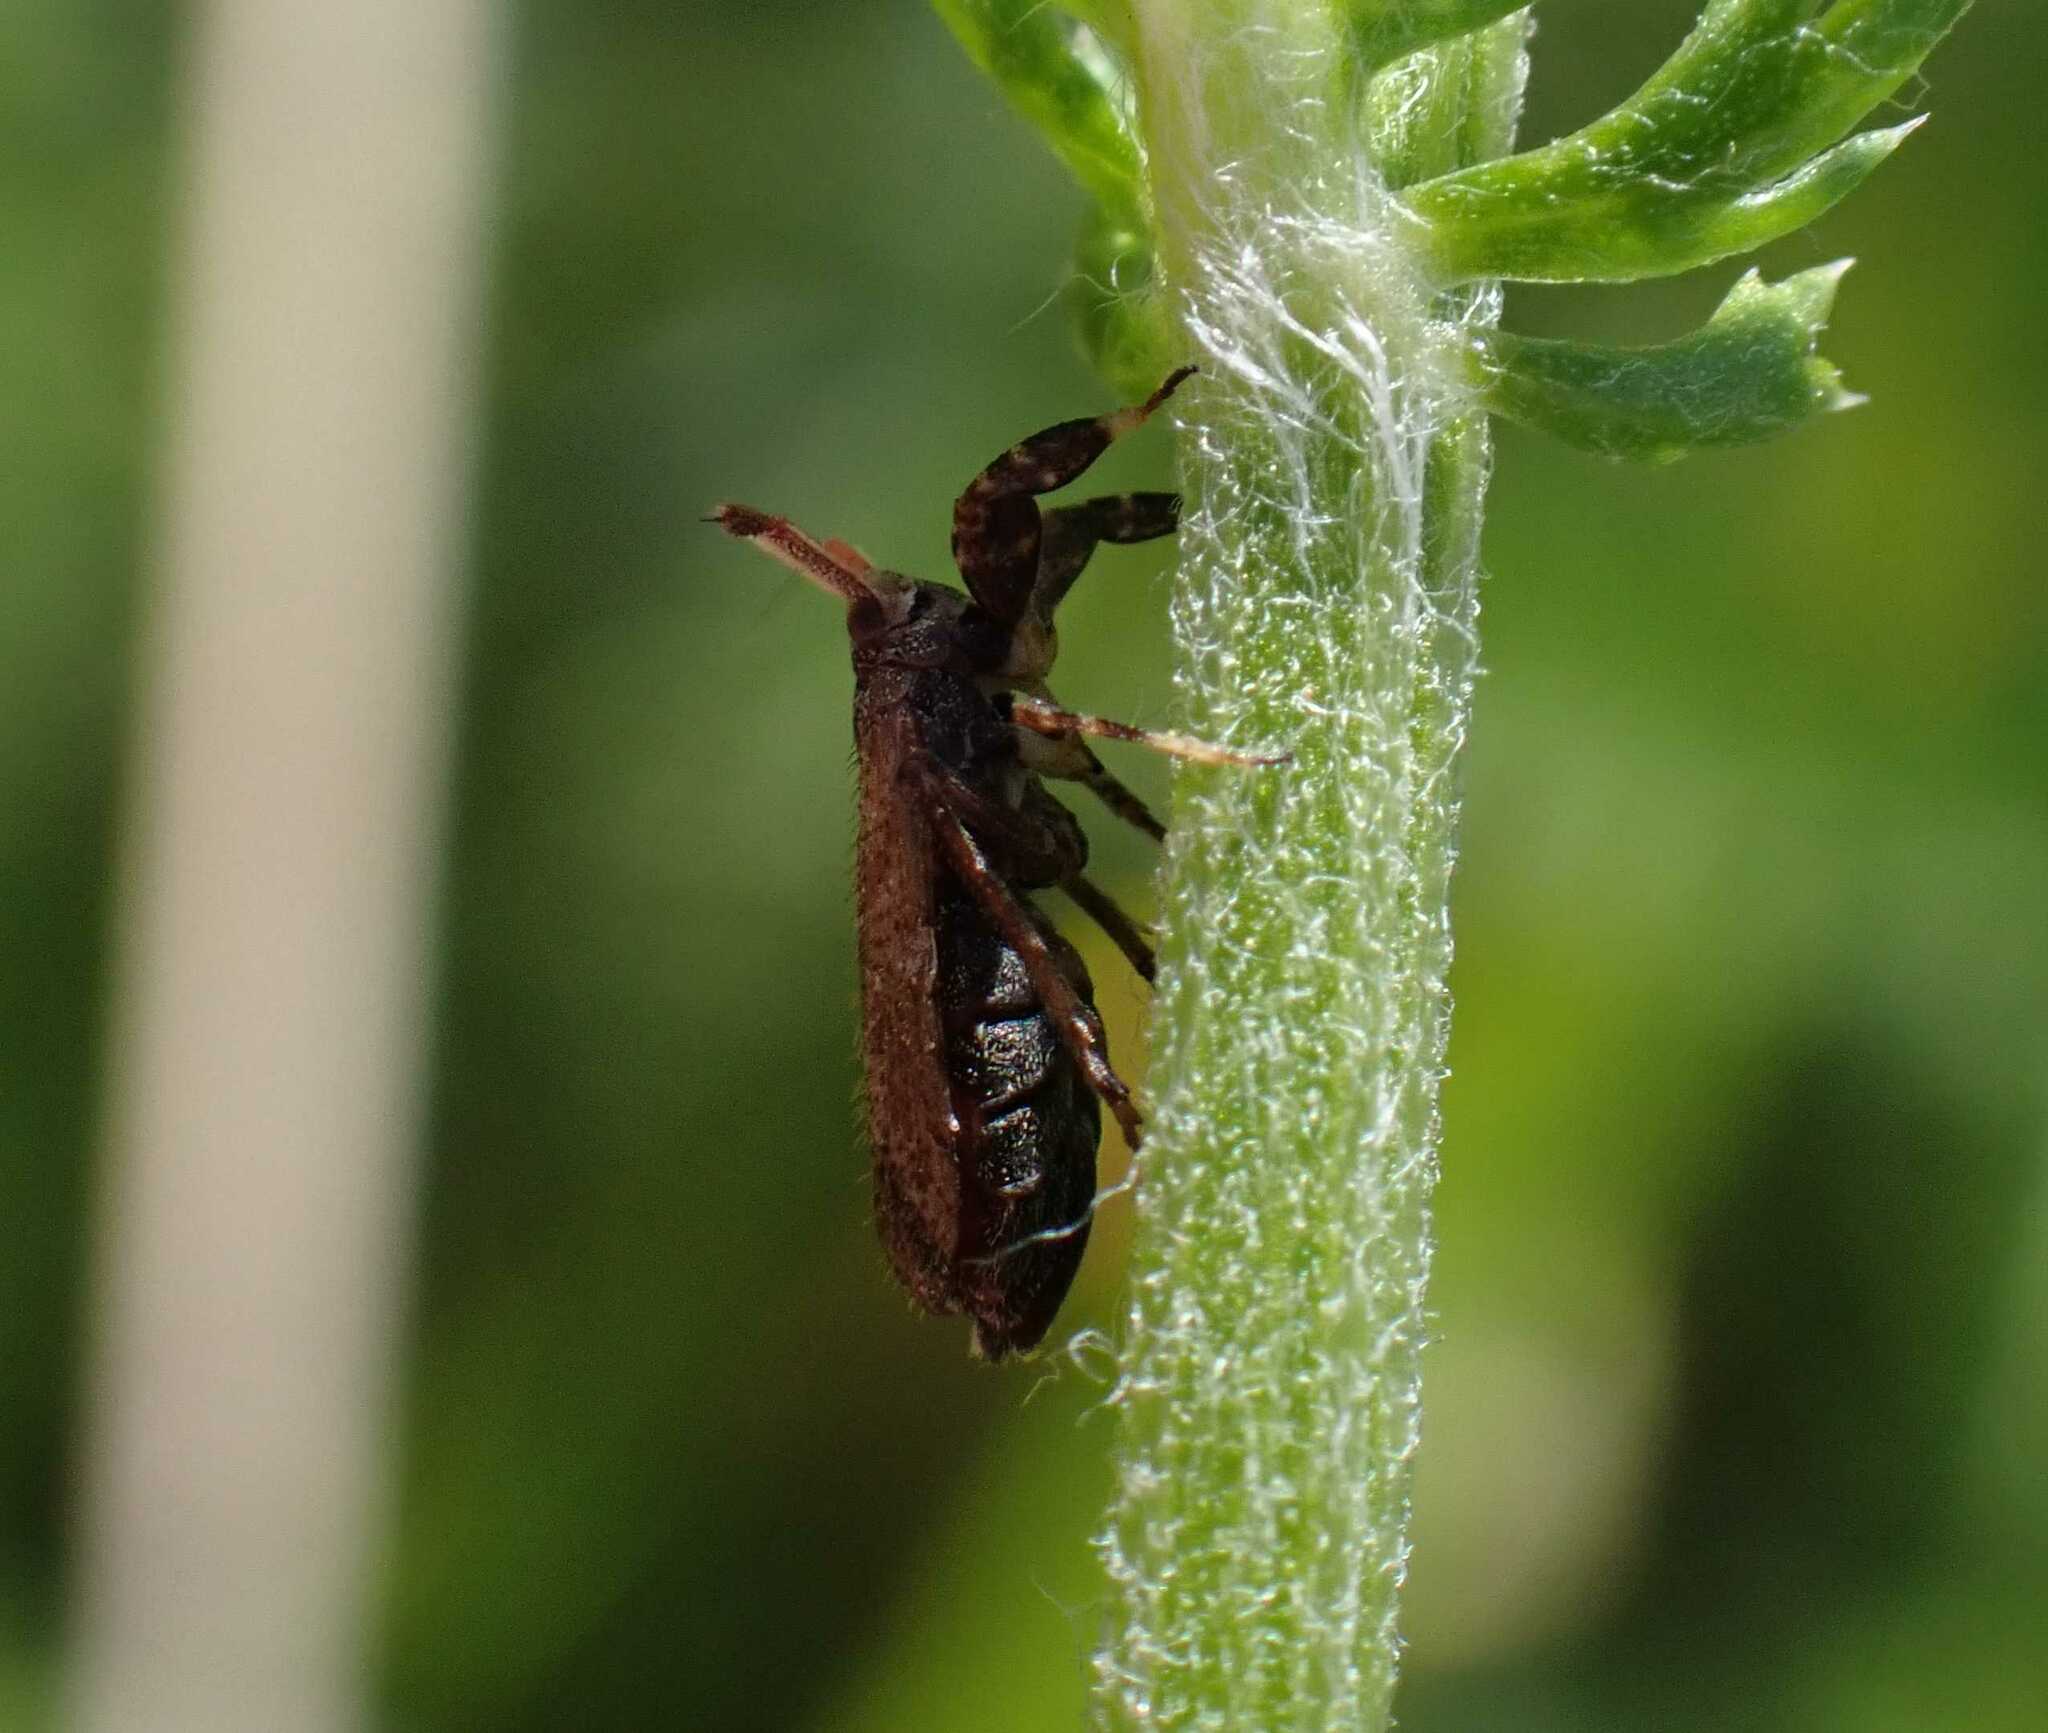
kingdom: Animalia
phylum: Arthropoda
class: Insecta
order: Hemiptera
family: Delphacidae
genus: Asiraca
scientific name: Asiraca clavicornis
